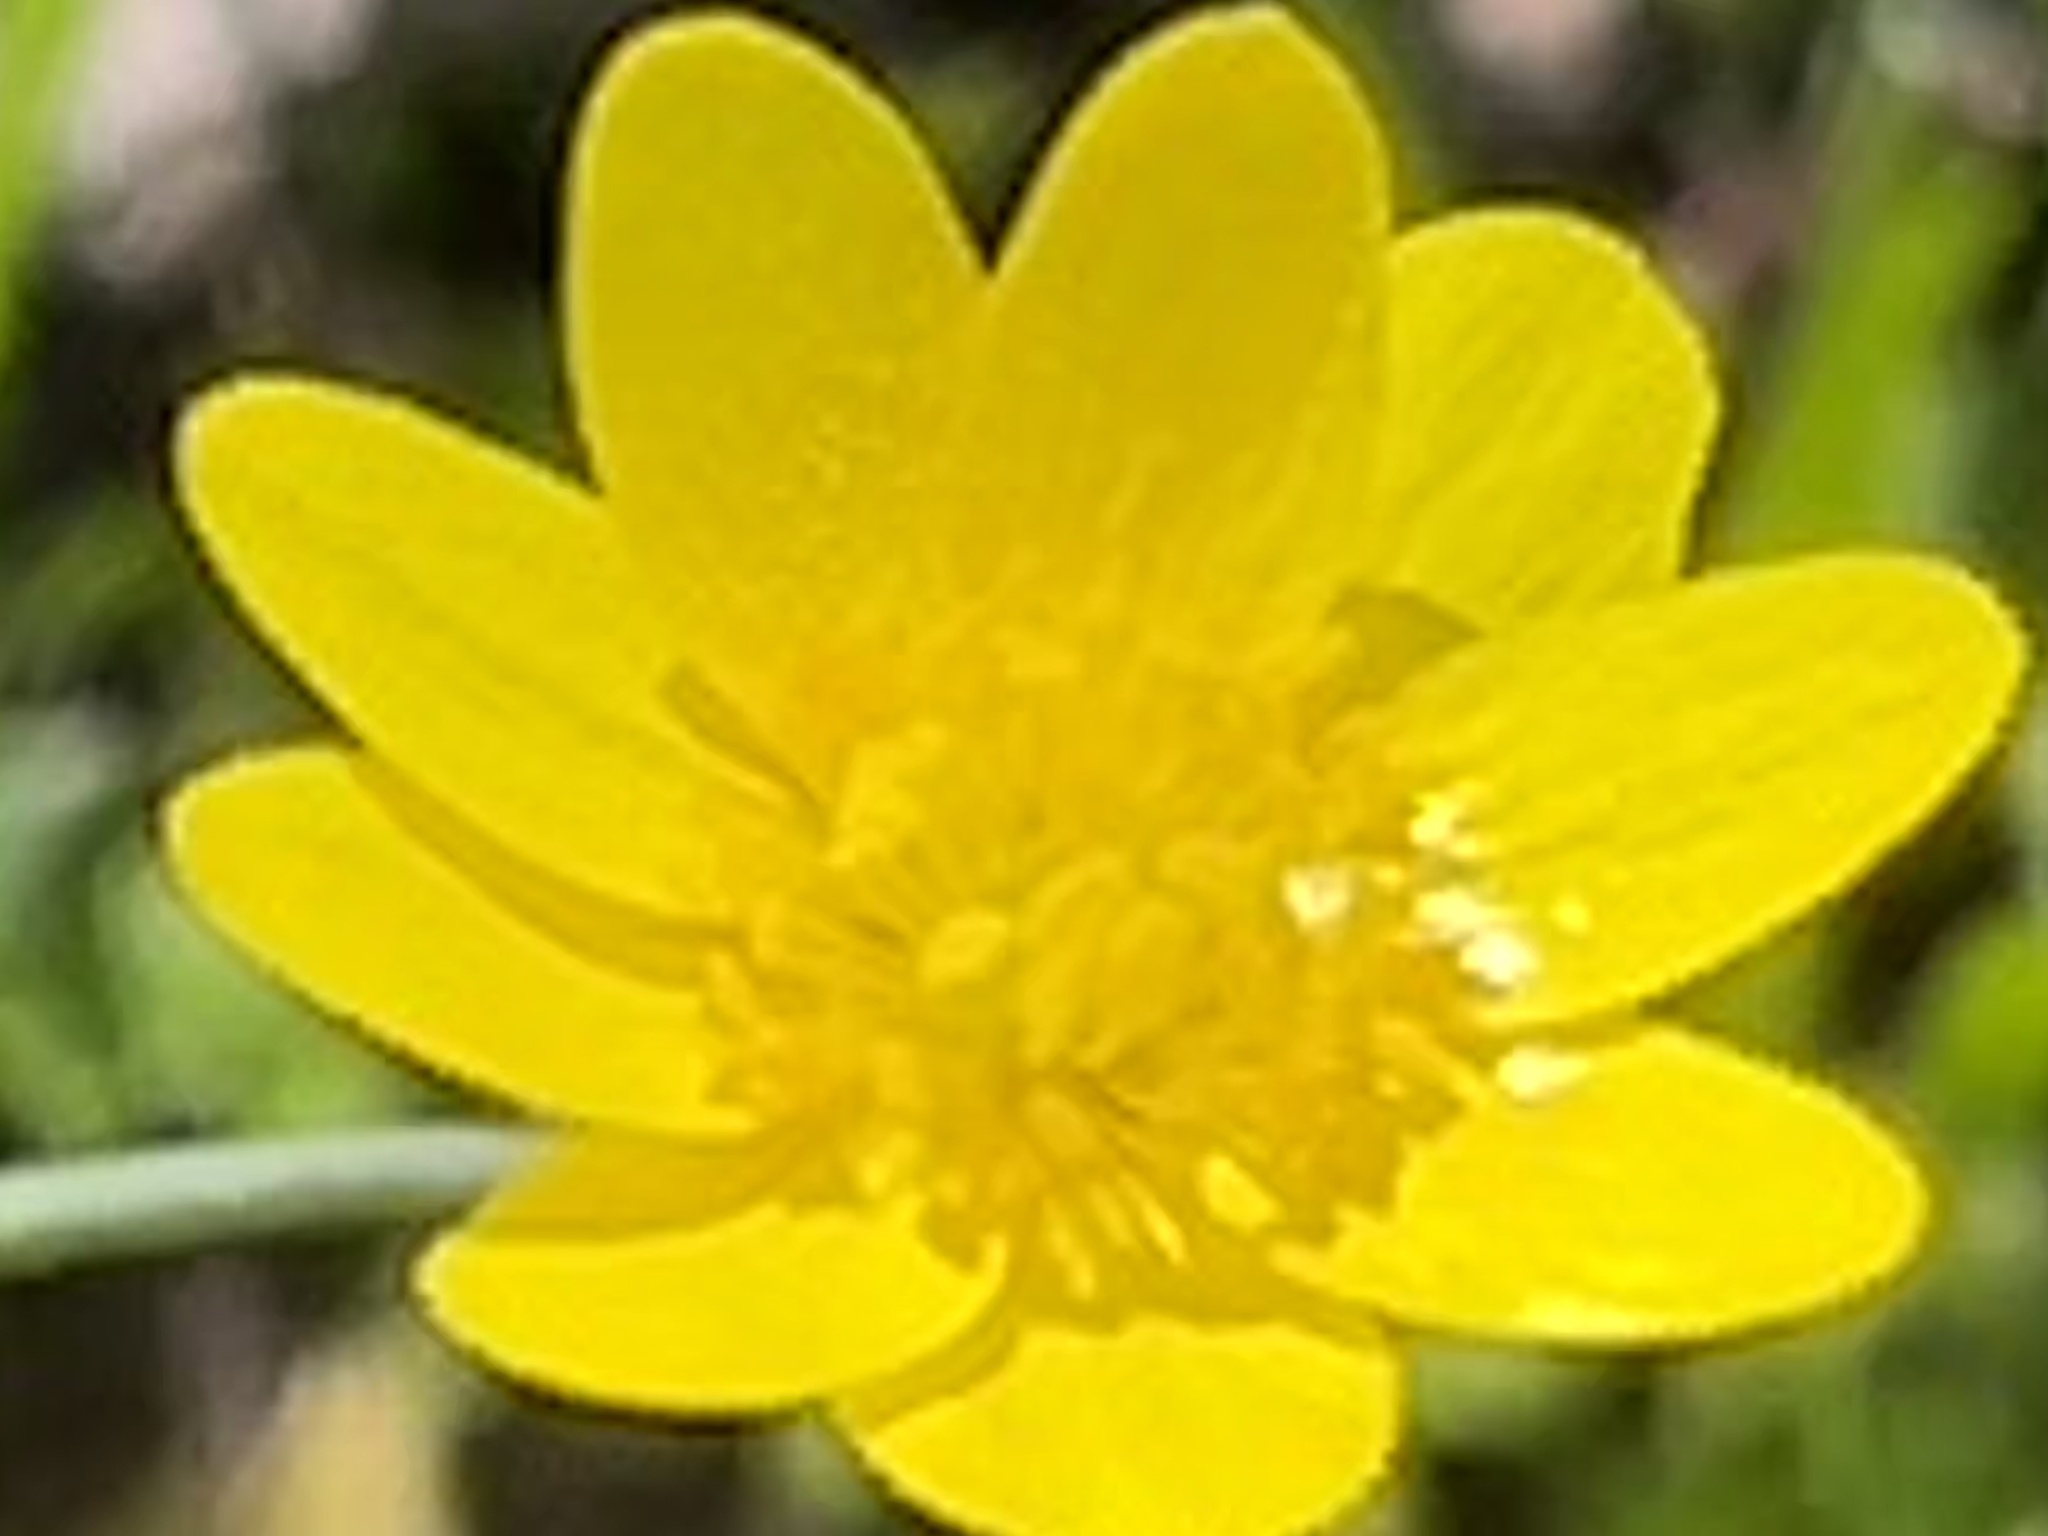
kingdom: Plantae
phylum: Tracheophyta
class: Magnoliopsida
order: Ranunculales
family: Ranunculaceae
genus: Ranunculus
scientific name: Ranunculus californicus
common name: California buttercup
